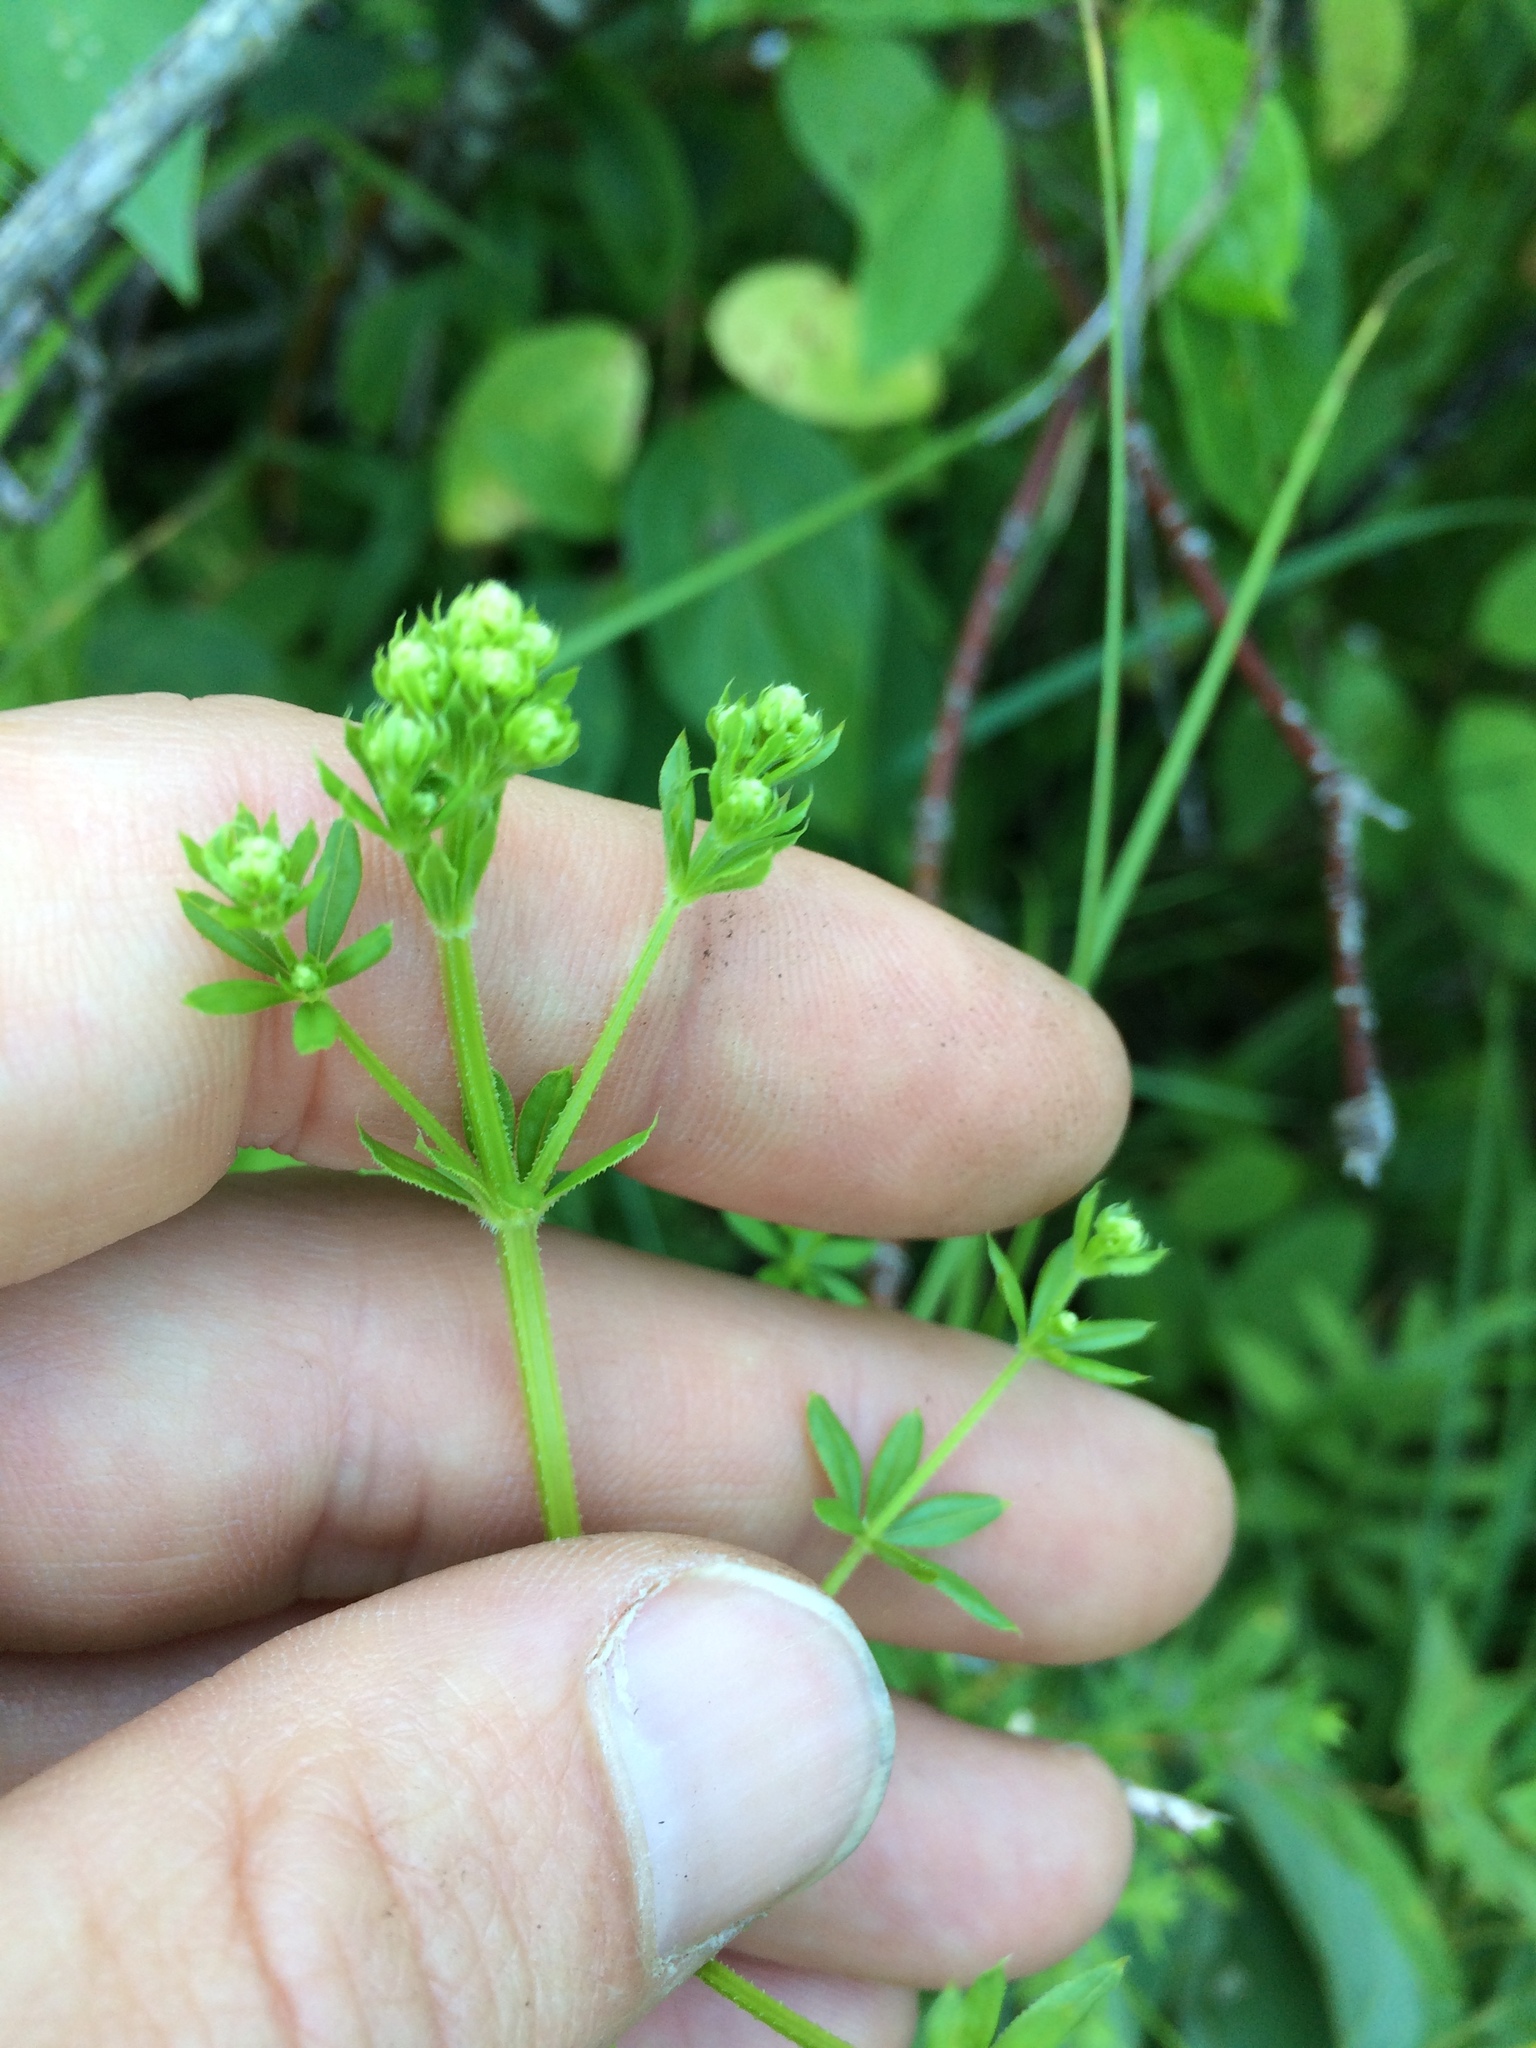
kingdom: Plantae
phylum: Tracheophyta
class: Magnoliopsida
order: Gentianales
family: Rubiaceae
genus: Galium
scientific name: Galium asprellum
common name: Rough bedstraw
